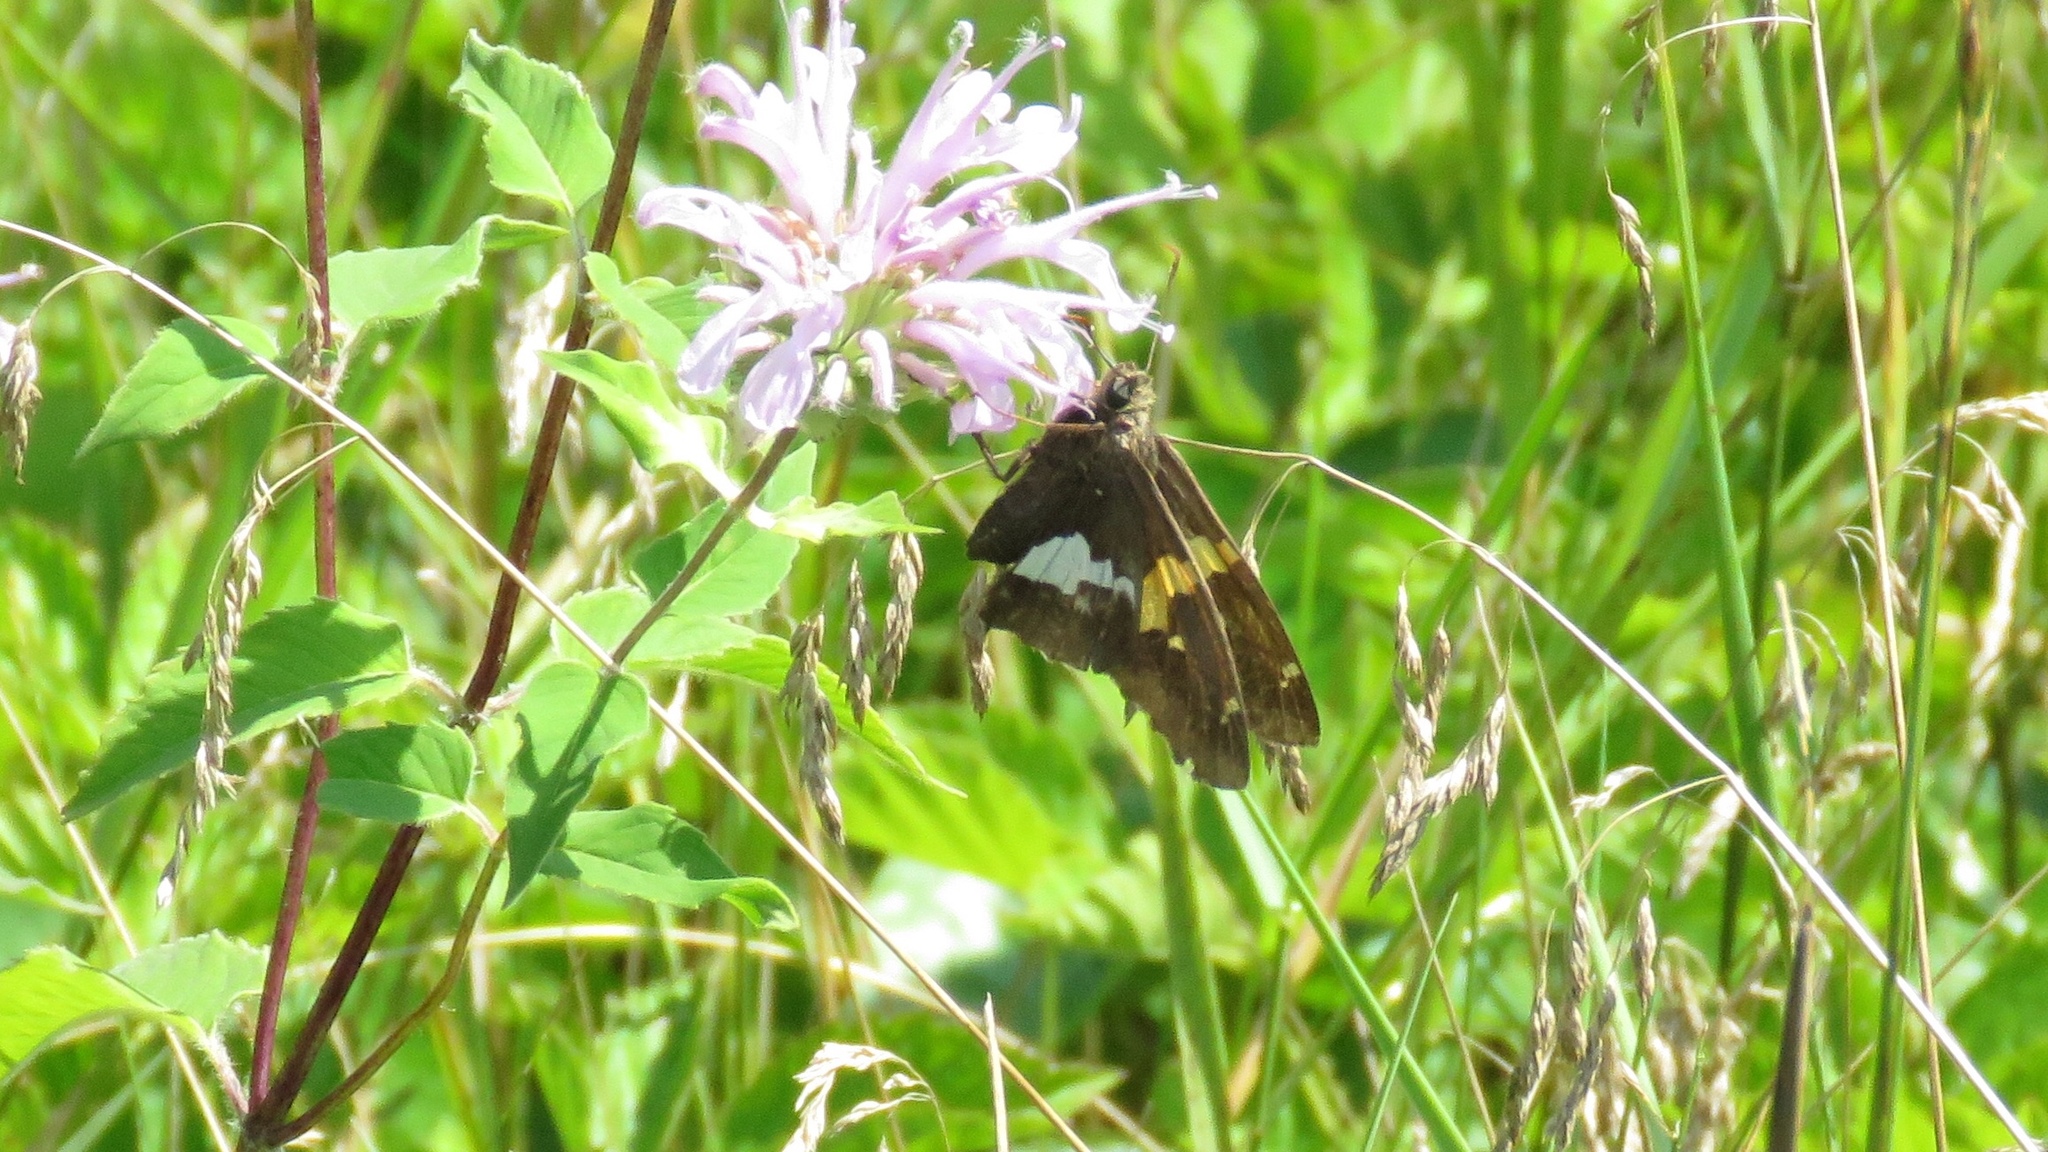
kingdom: Animalia
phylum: Arthropoda
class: Insecta
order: Lepidoptera
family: Hesperiidae
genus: Epargyreus
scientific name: Epargyreus clarus
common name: Silver-spotted skipper
